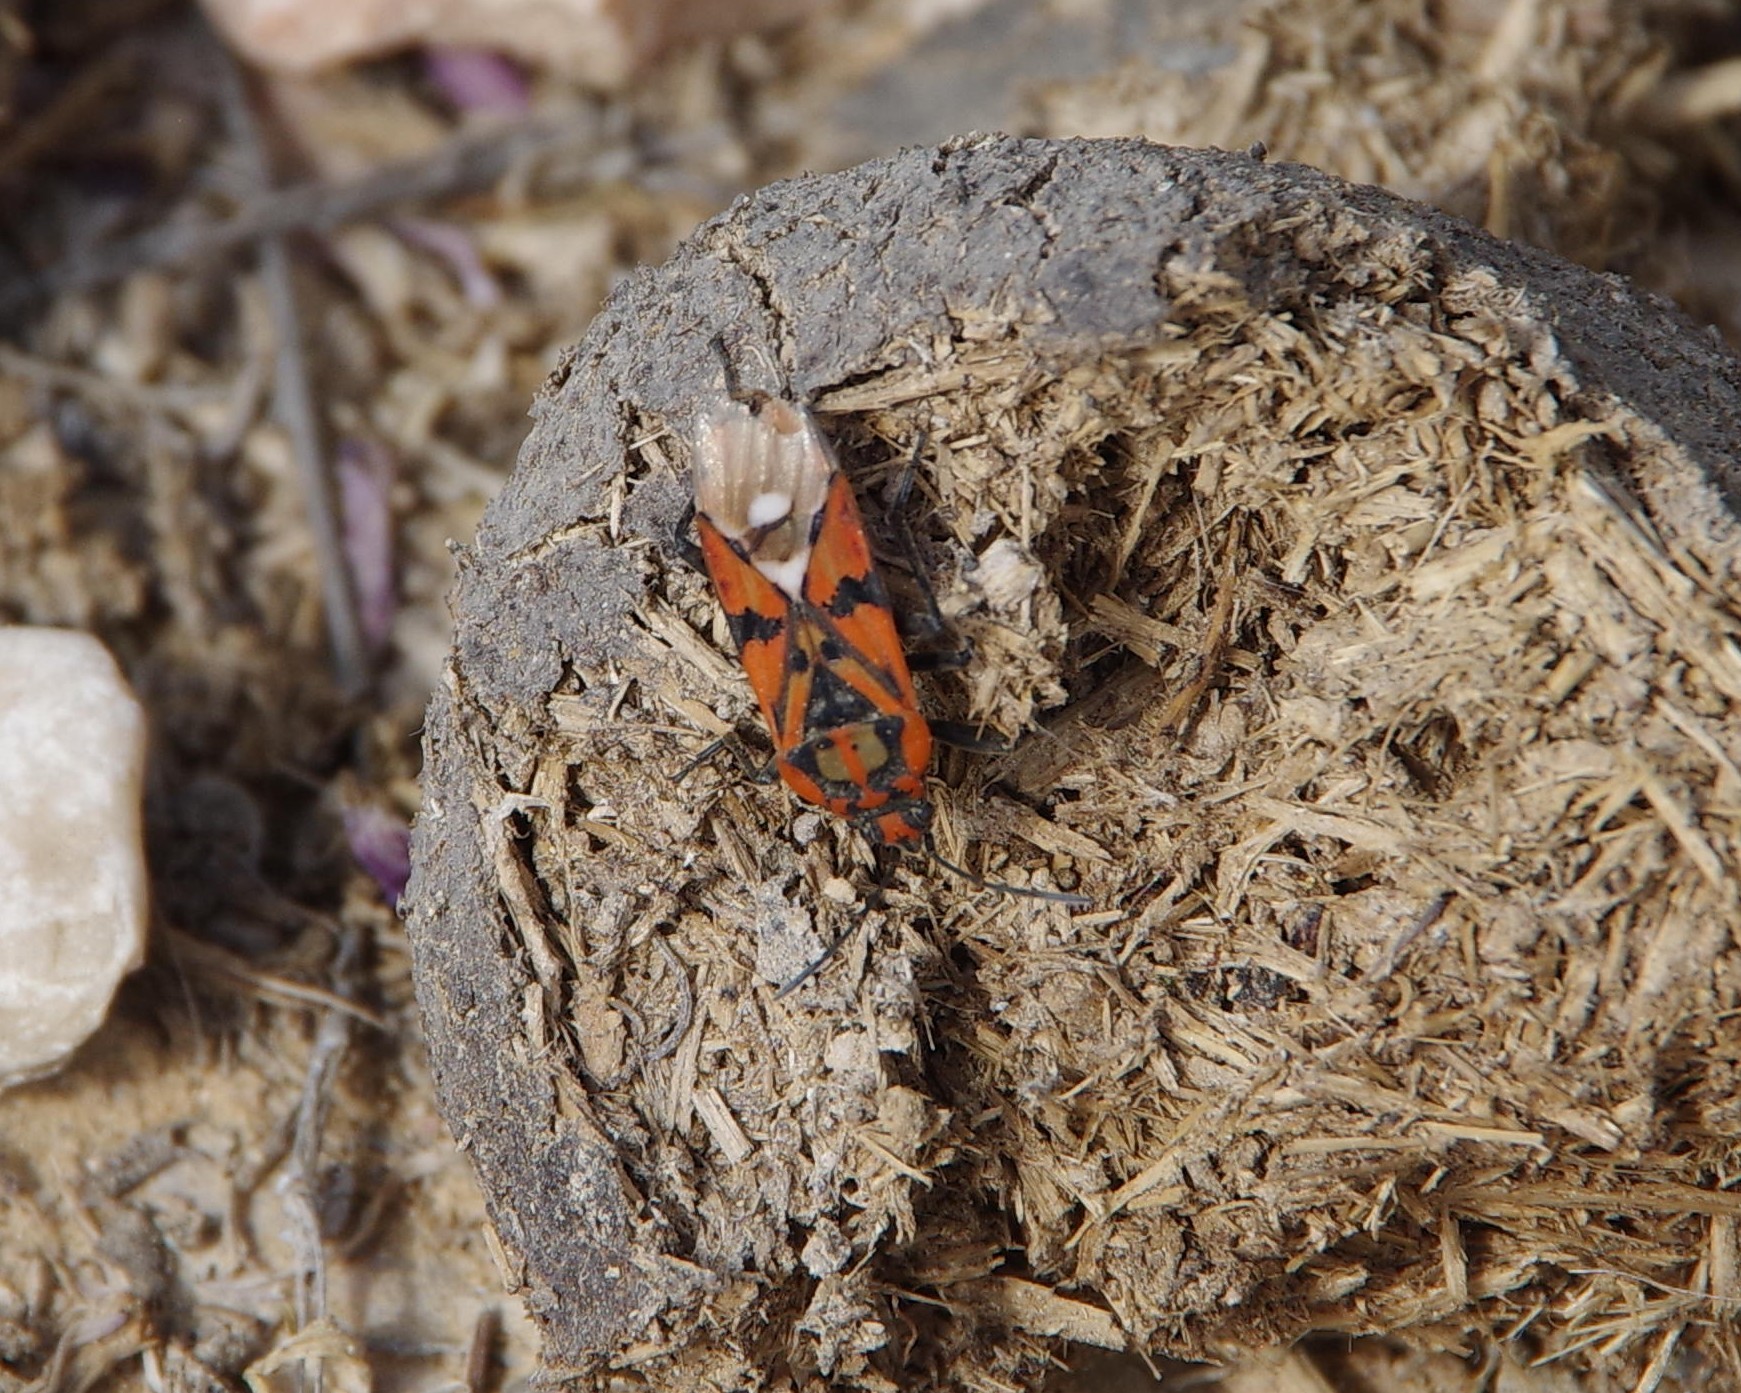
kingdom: Animalia
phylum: Arthropoda
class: Insecta
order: Hemiptera
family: Lygaeidae
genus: Spilostethus
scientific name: Spilostethus pandurus
